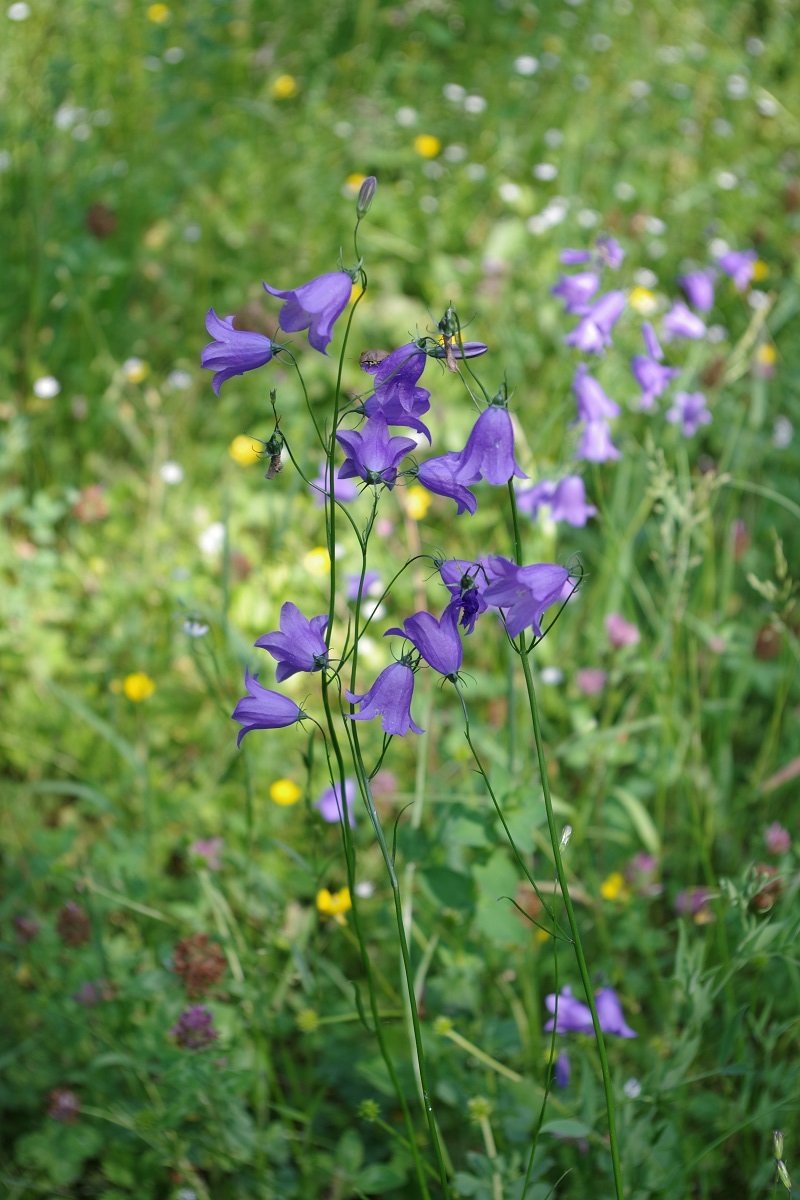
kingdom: Plantae
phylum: Tracheophyta
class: Magnoliopsida
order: Asterales
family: Campanulaceae
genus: Campanula
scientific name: Campanula rotundifolia
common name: Harebell
